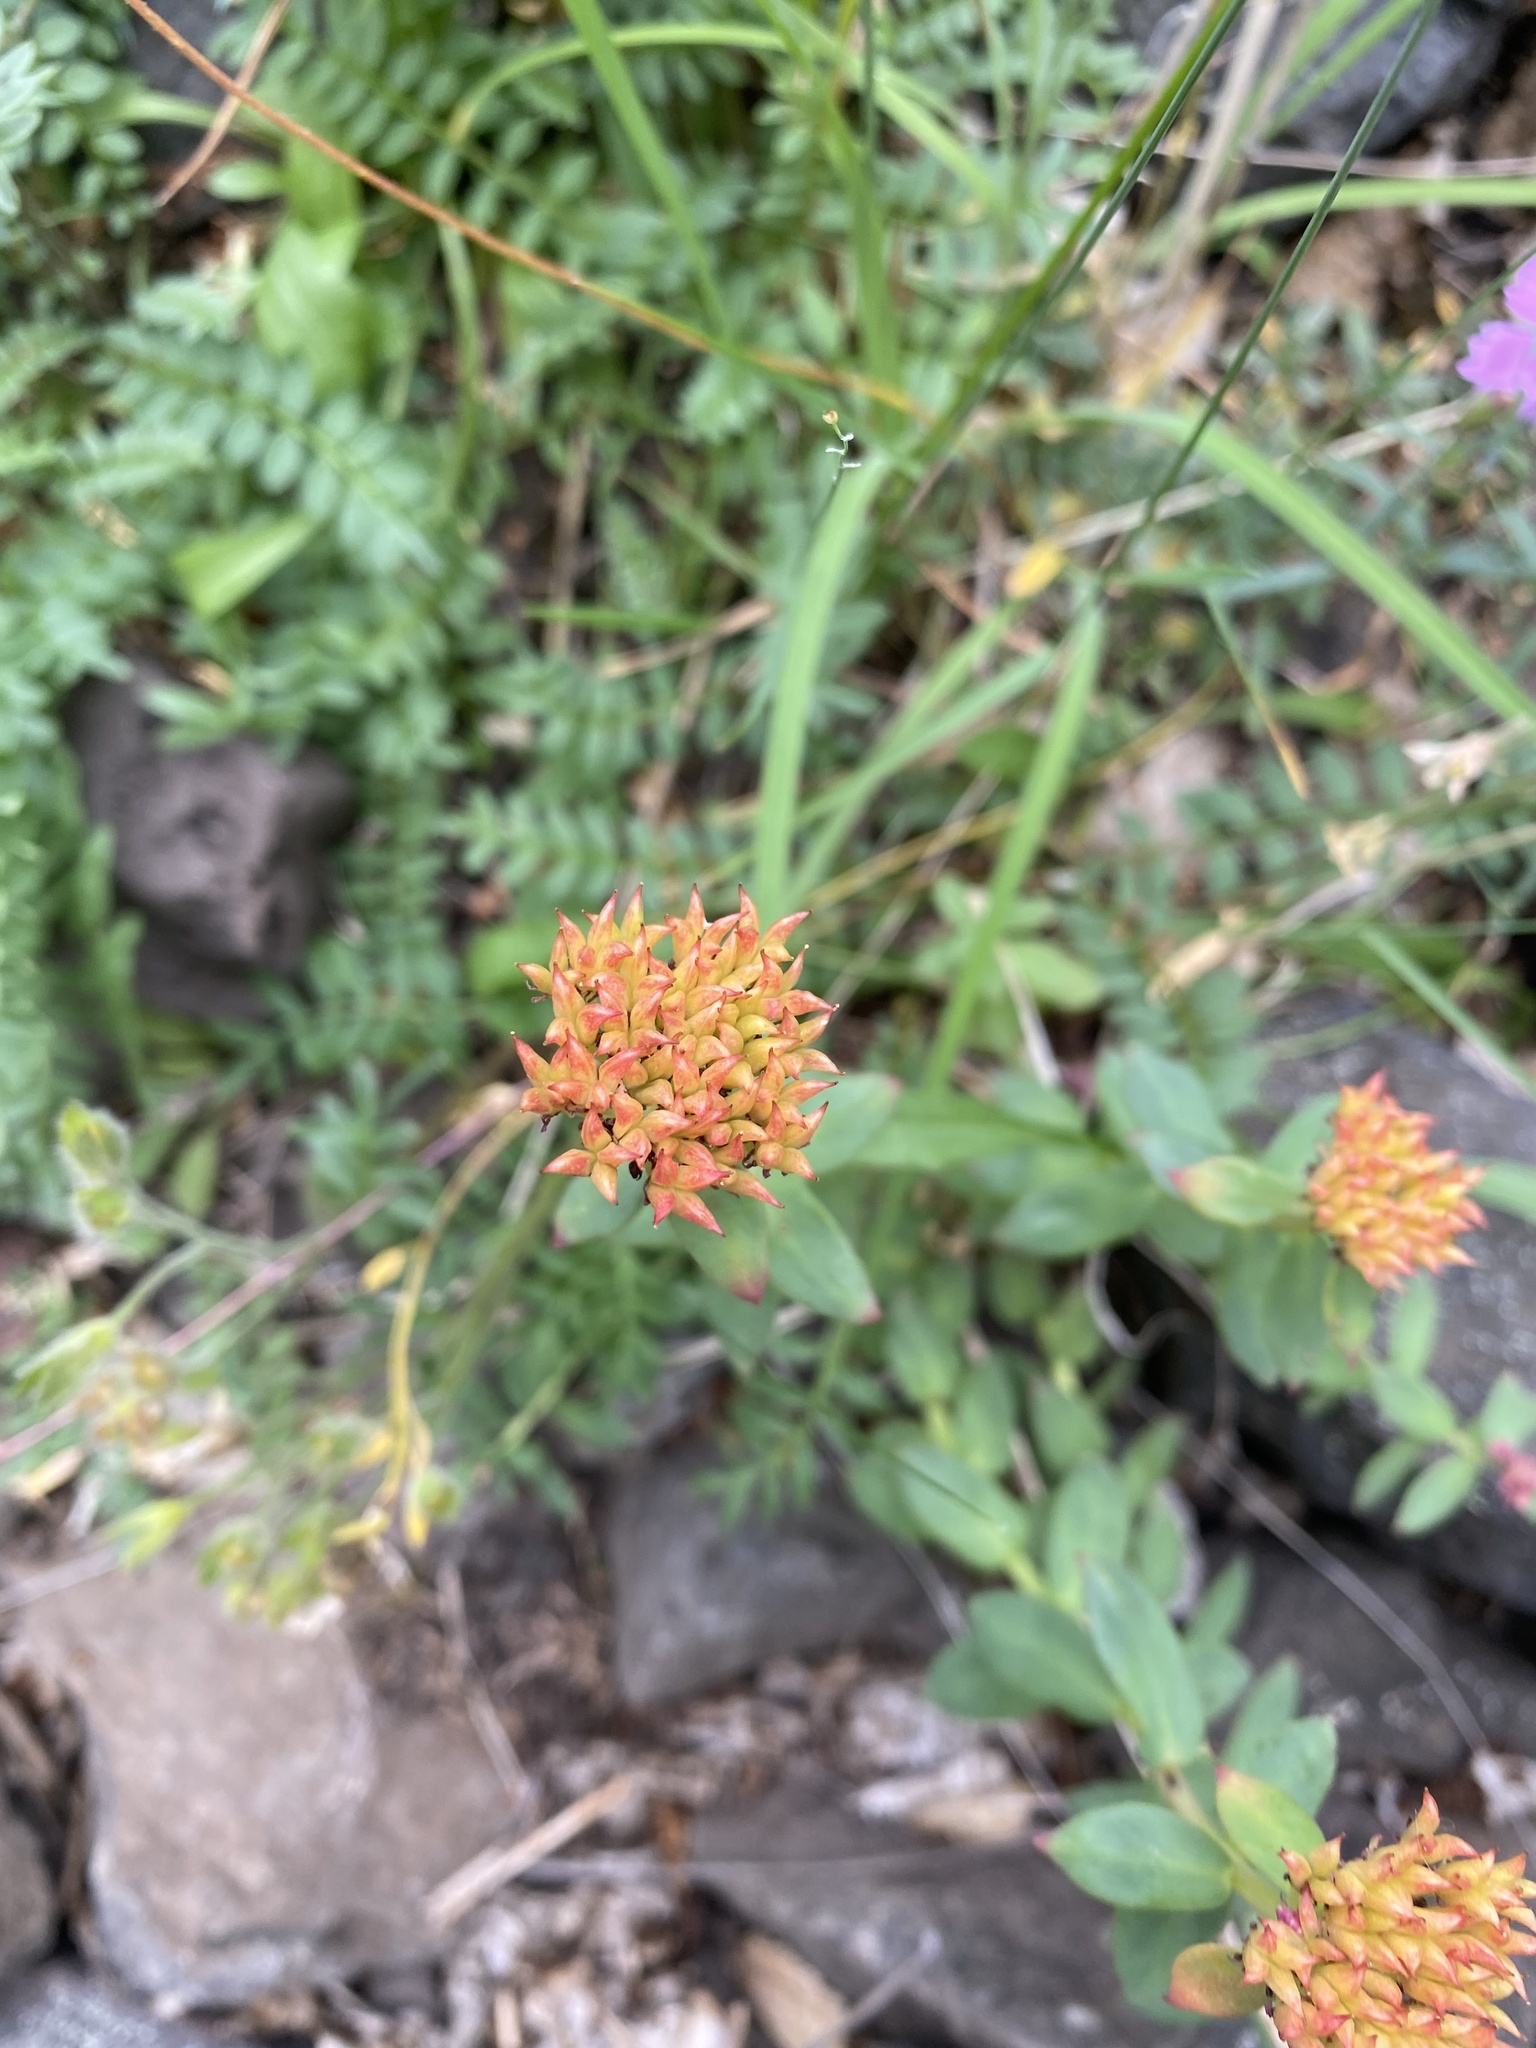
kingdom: Plantae
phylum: Tracheophyta
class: Magnoliopsida
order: Saxifragales
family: Crassulaceae
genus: Rhodiola
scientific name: Rhodiola rosea
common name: Roseroot
